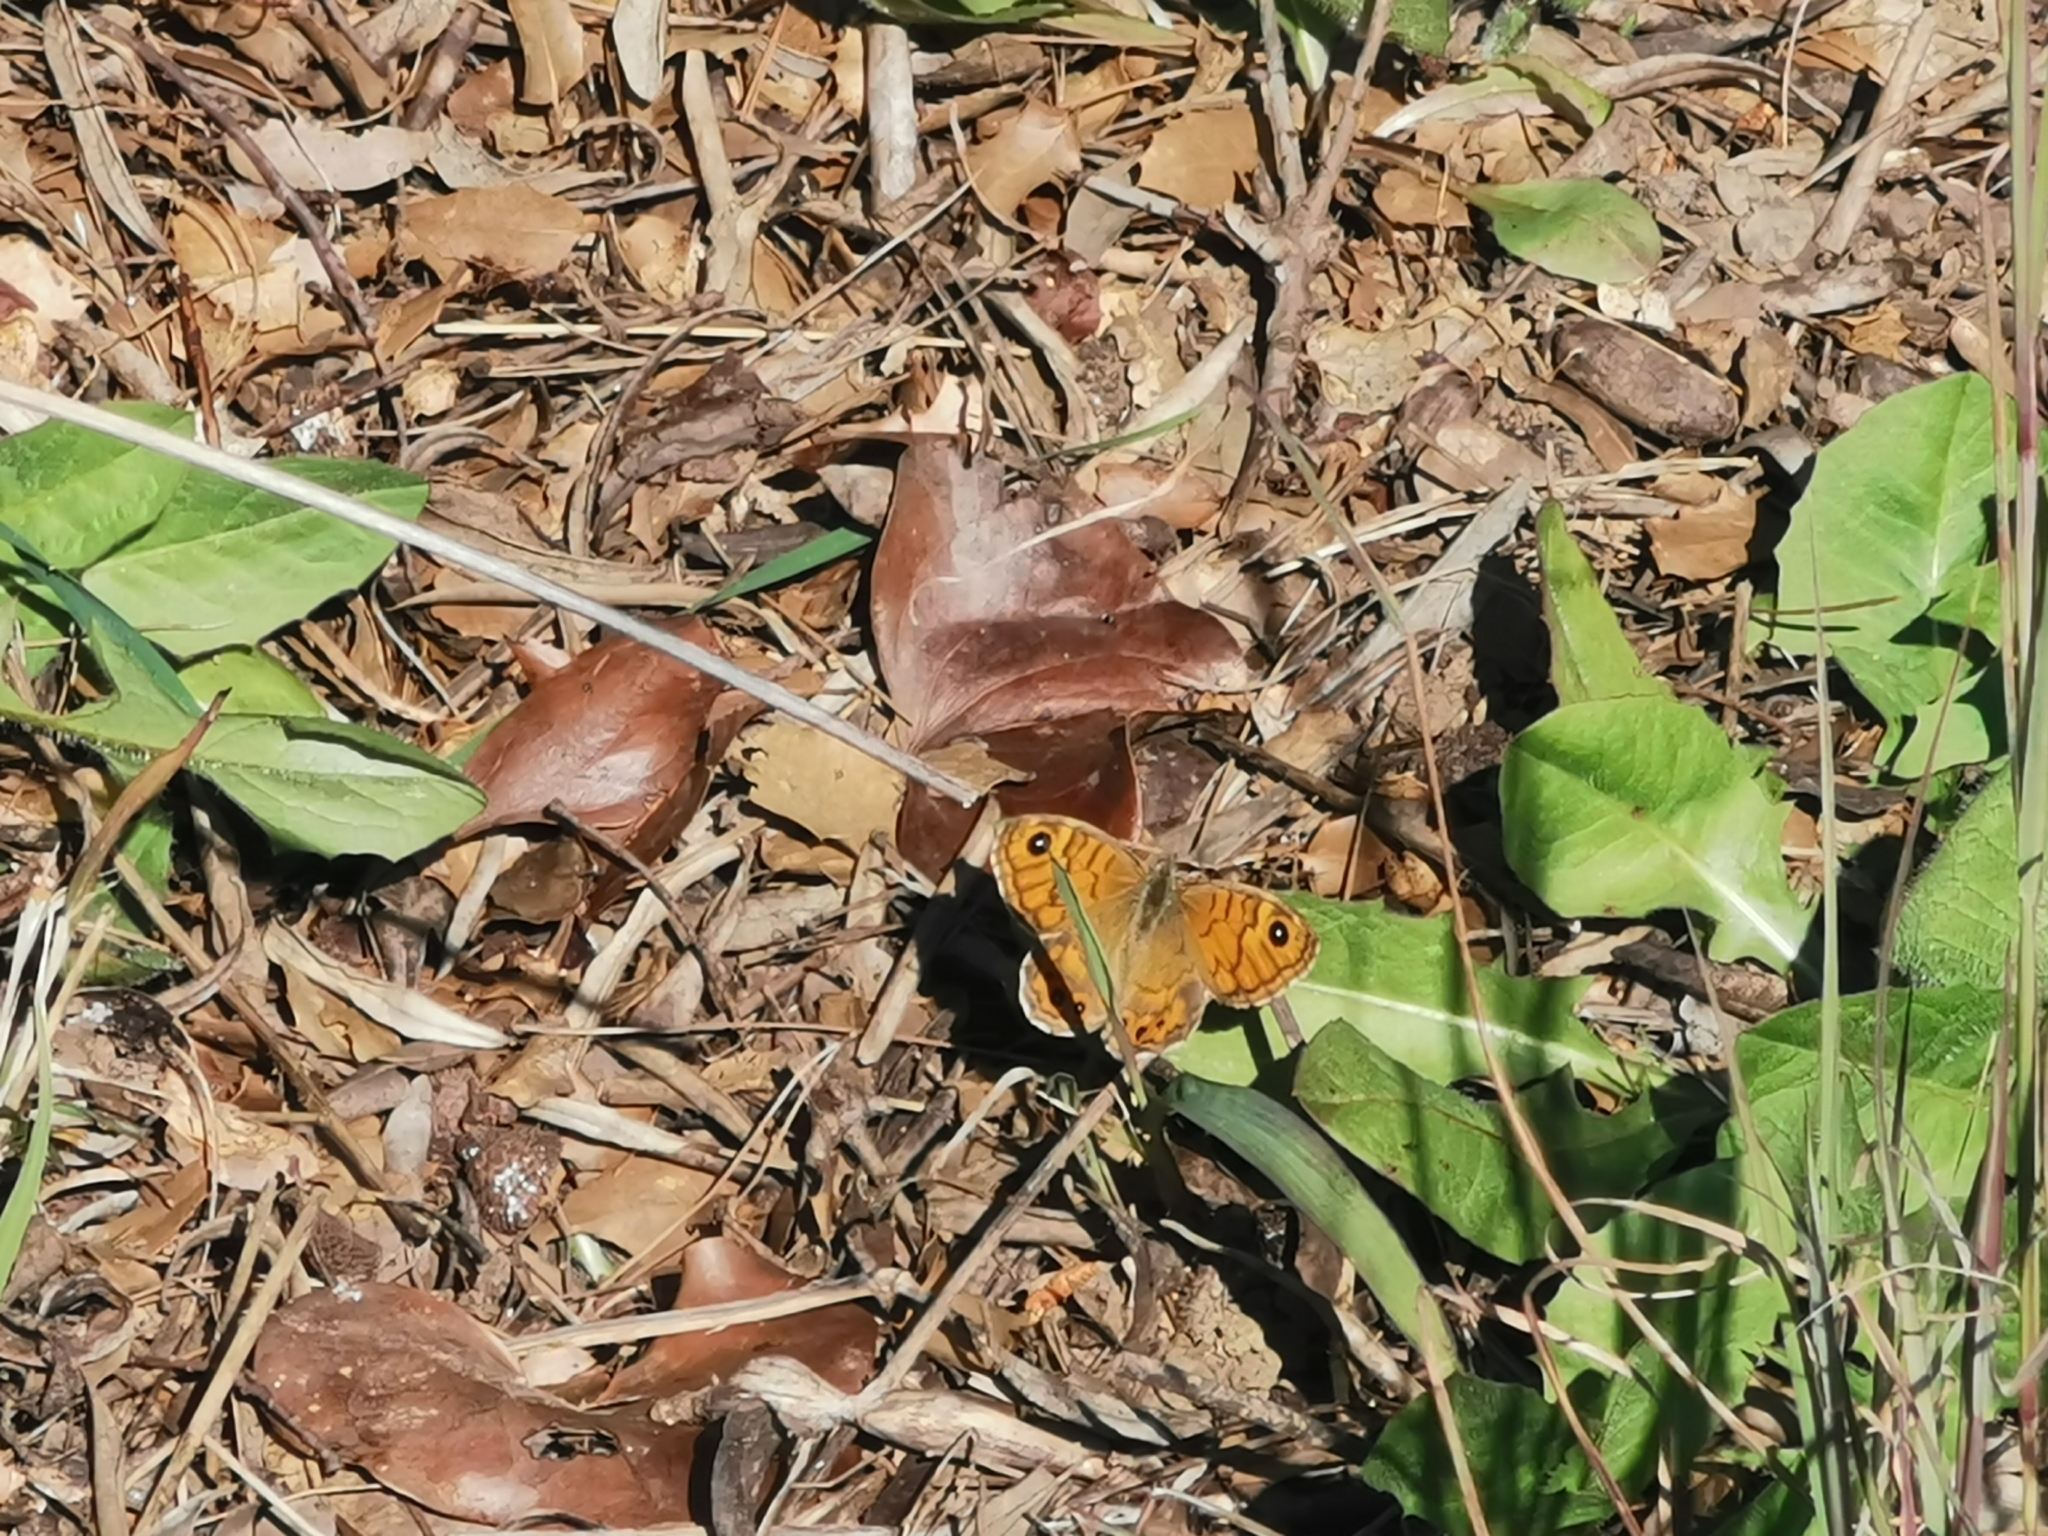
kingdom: Animalia
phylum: Arthropoda
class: Insecta
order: Lepidoptera
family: Nymphalidae
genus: Pararge
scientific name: Pararge Lasiommata megera
